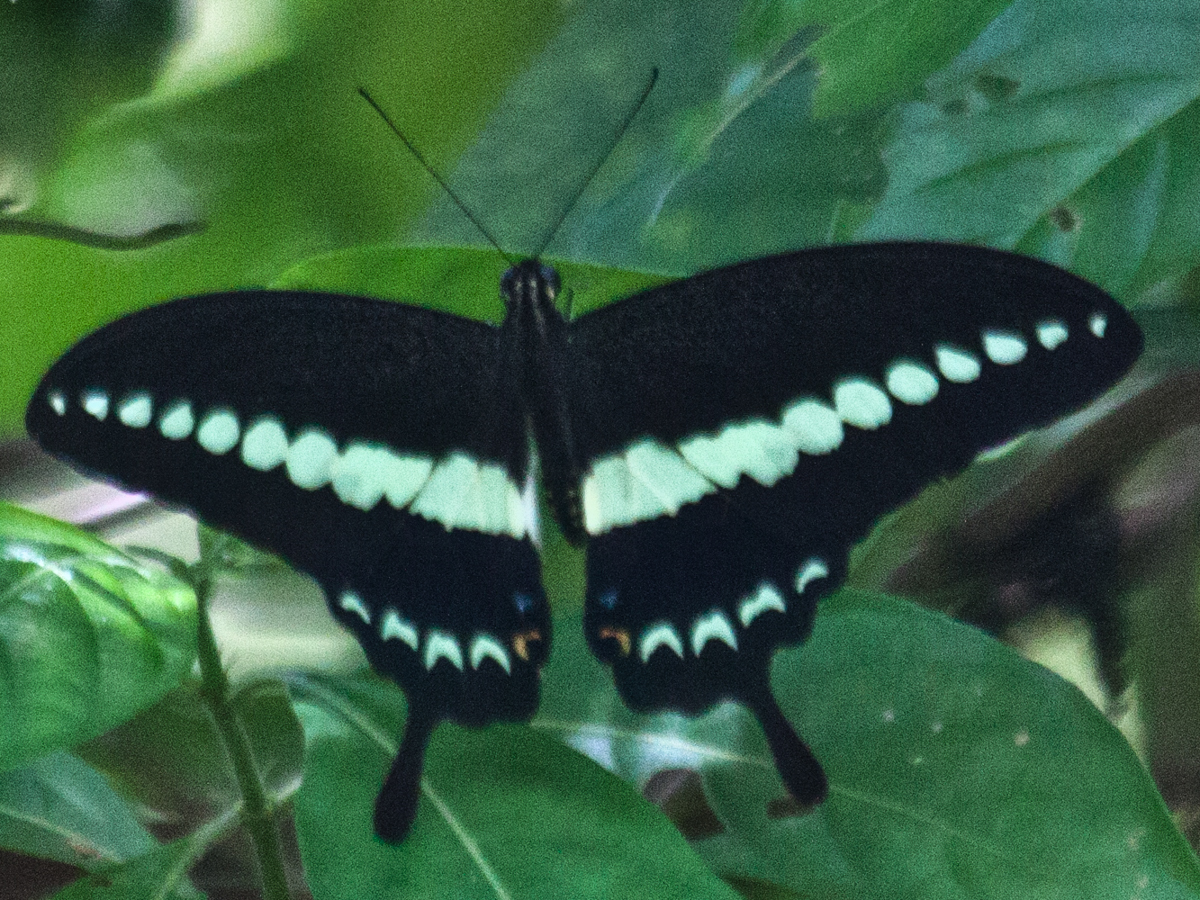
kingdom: Animalia
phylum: Arthropoda
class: Insecta
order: Lepidoptera
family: Papilionidae
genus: Papilio
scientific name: Papilio demolion
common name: Banded swallowtail
